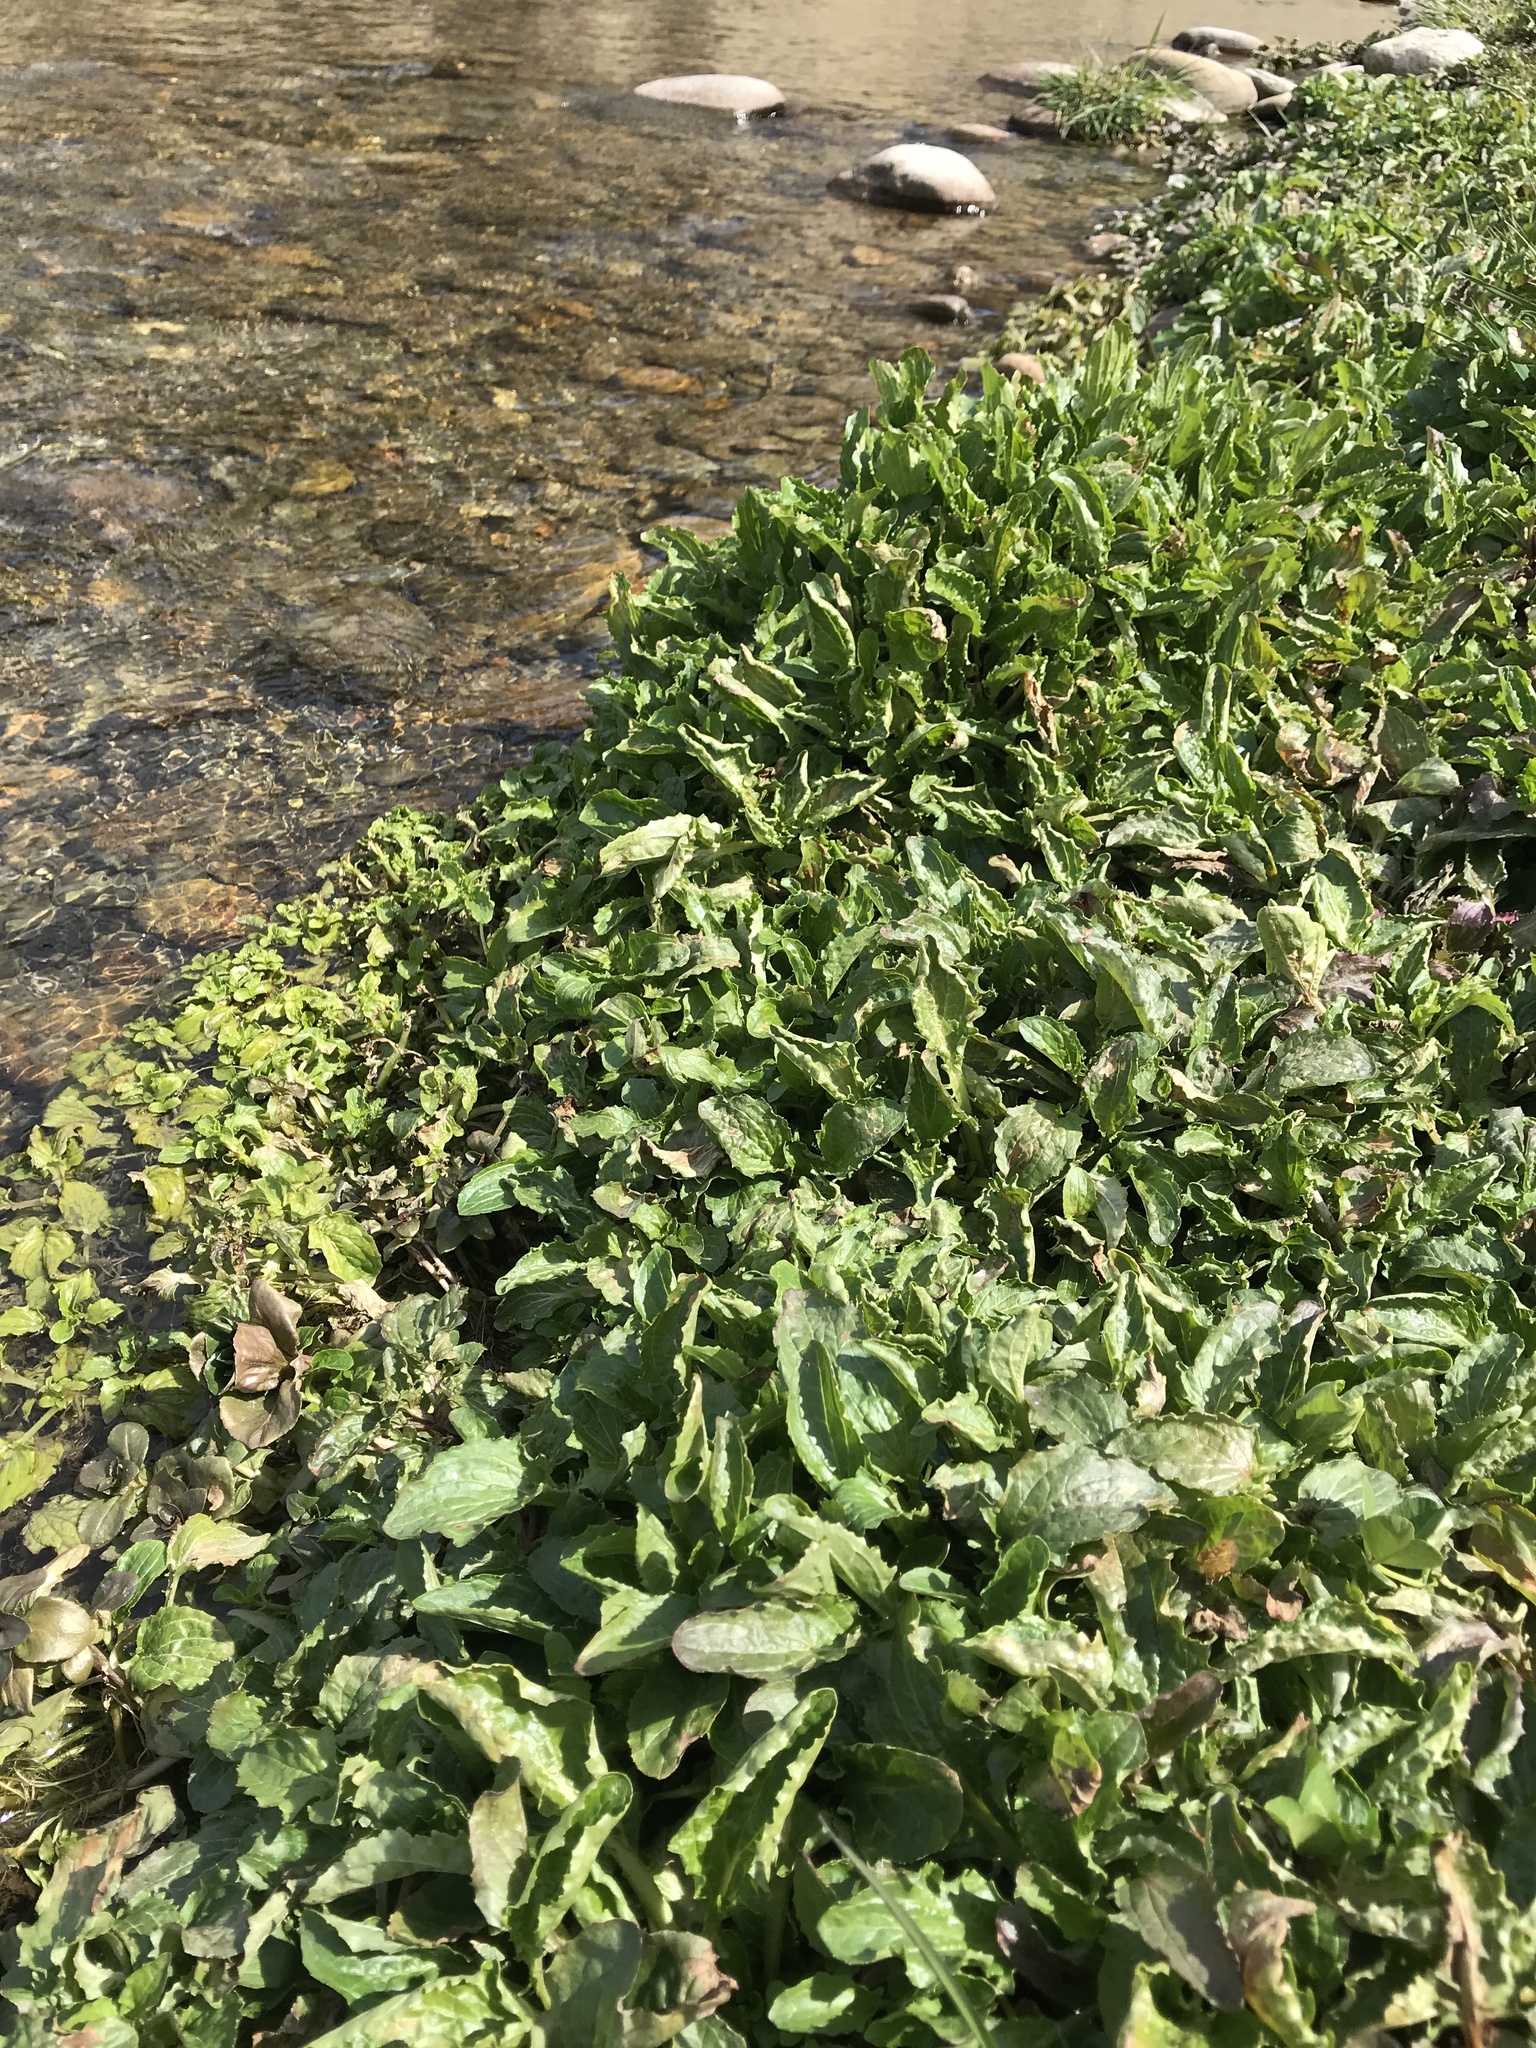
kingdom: Plantae
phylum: Tracheophyta
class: Magnoliopsida
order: Lamiales
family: Phrymaceae
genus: Erythranthe
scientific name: Erythranthe guttata
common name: Monkeyflower
